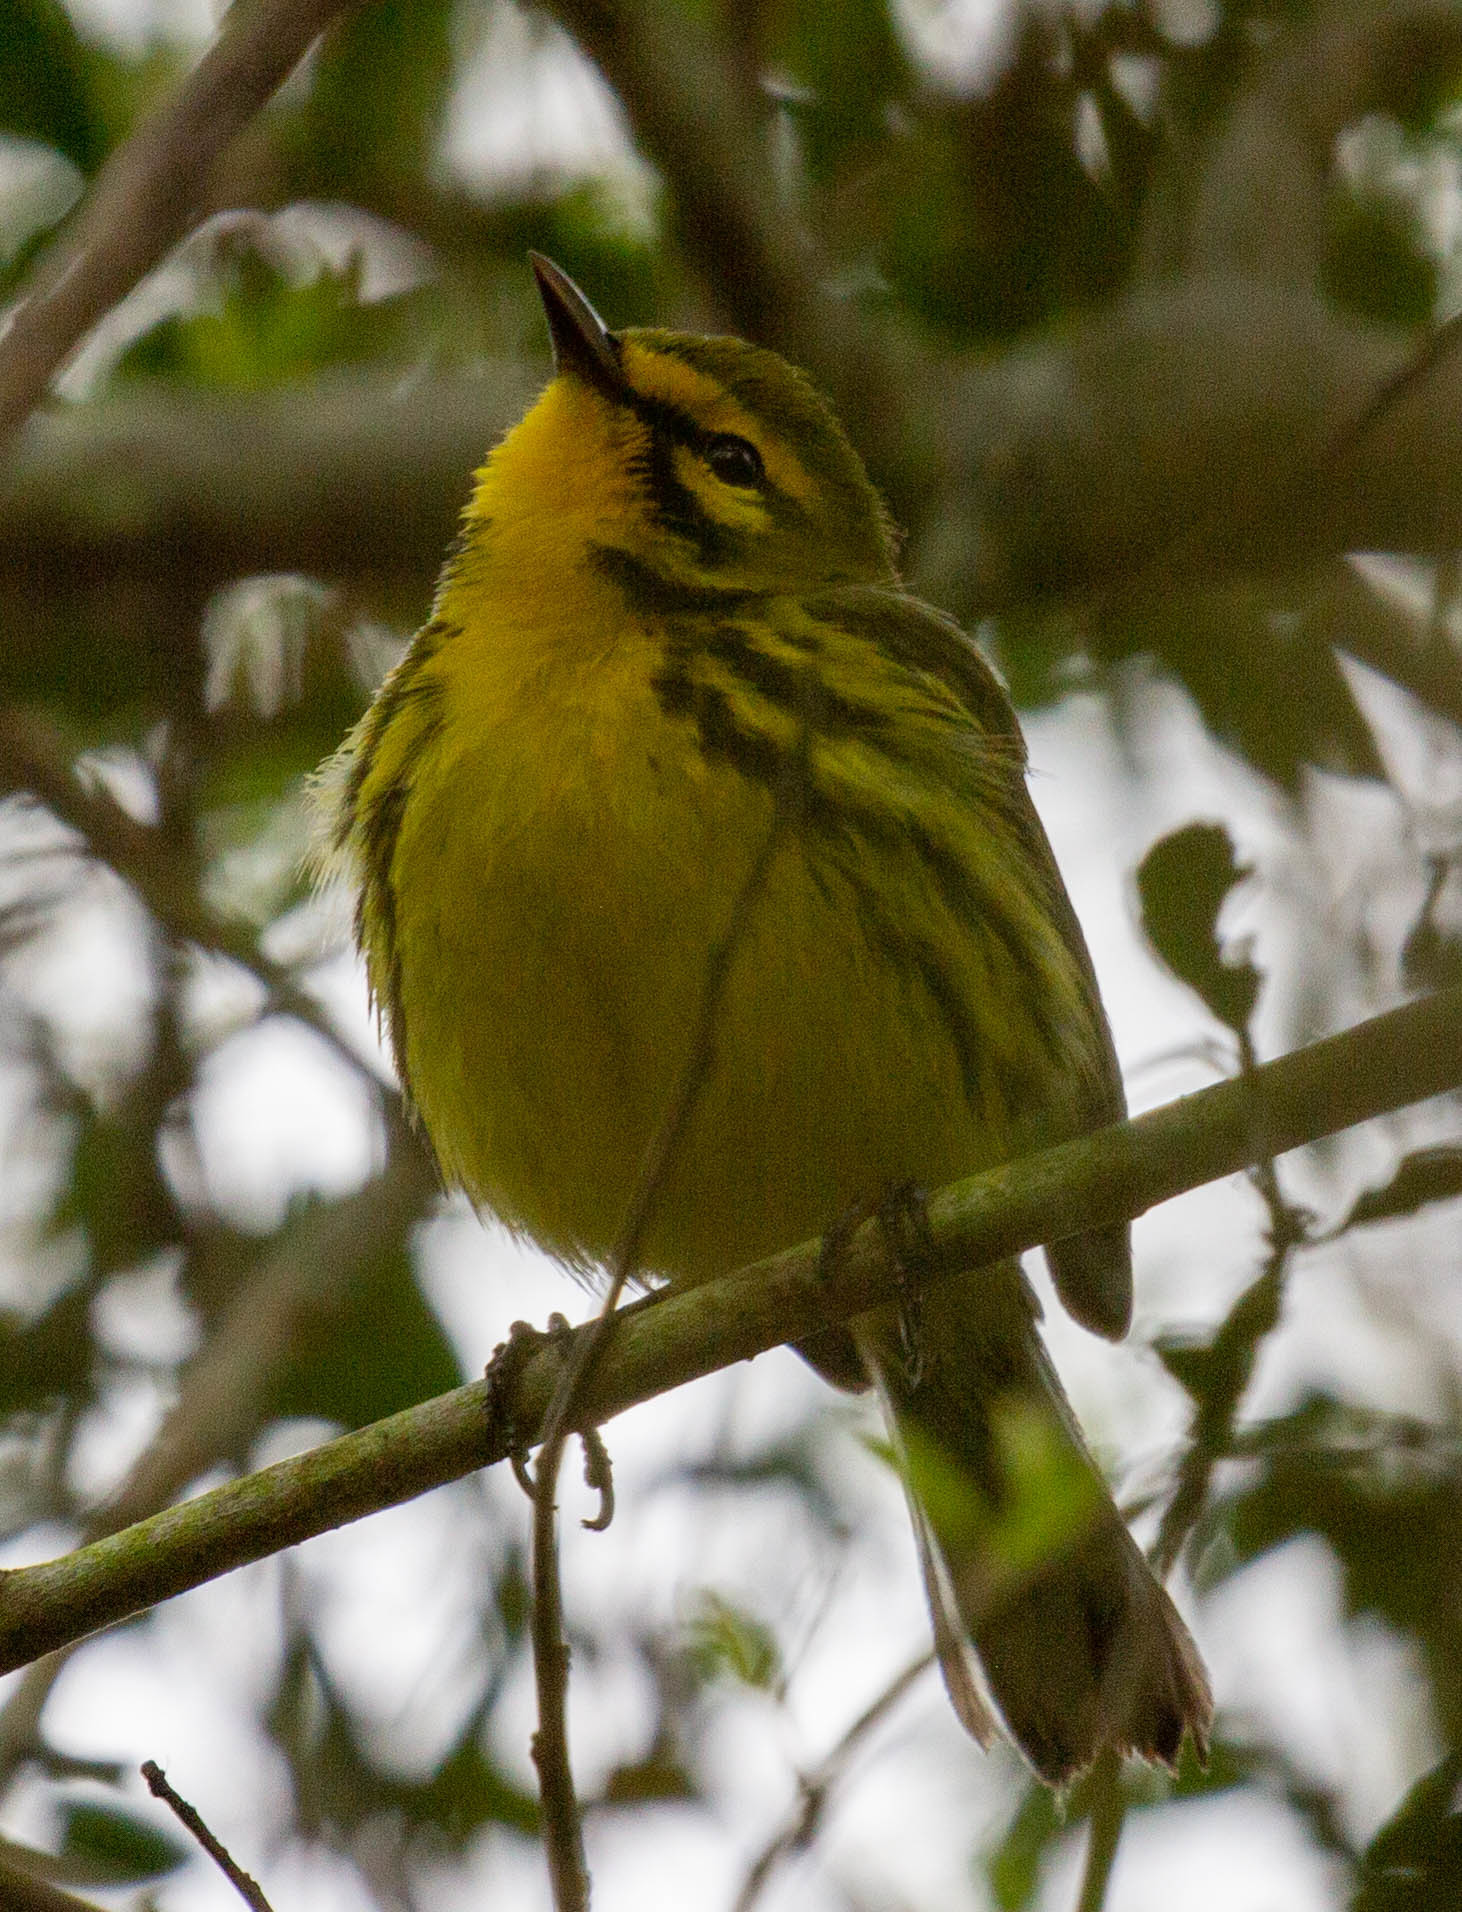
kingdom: Animalia
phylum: Chordata
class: Aves
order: Passeriformes
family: Parulidae
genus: Setophaga
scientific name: Setophaga discolor
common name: Prairie warbler
